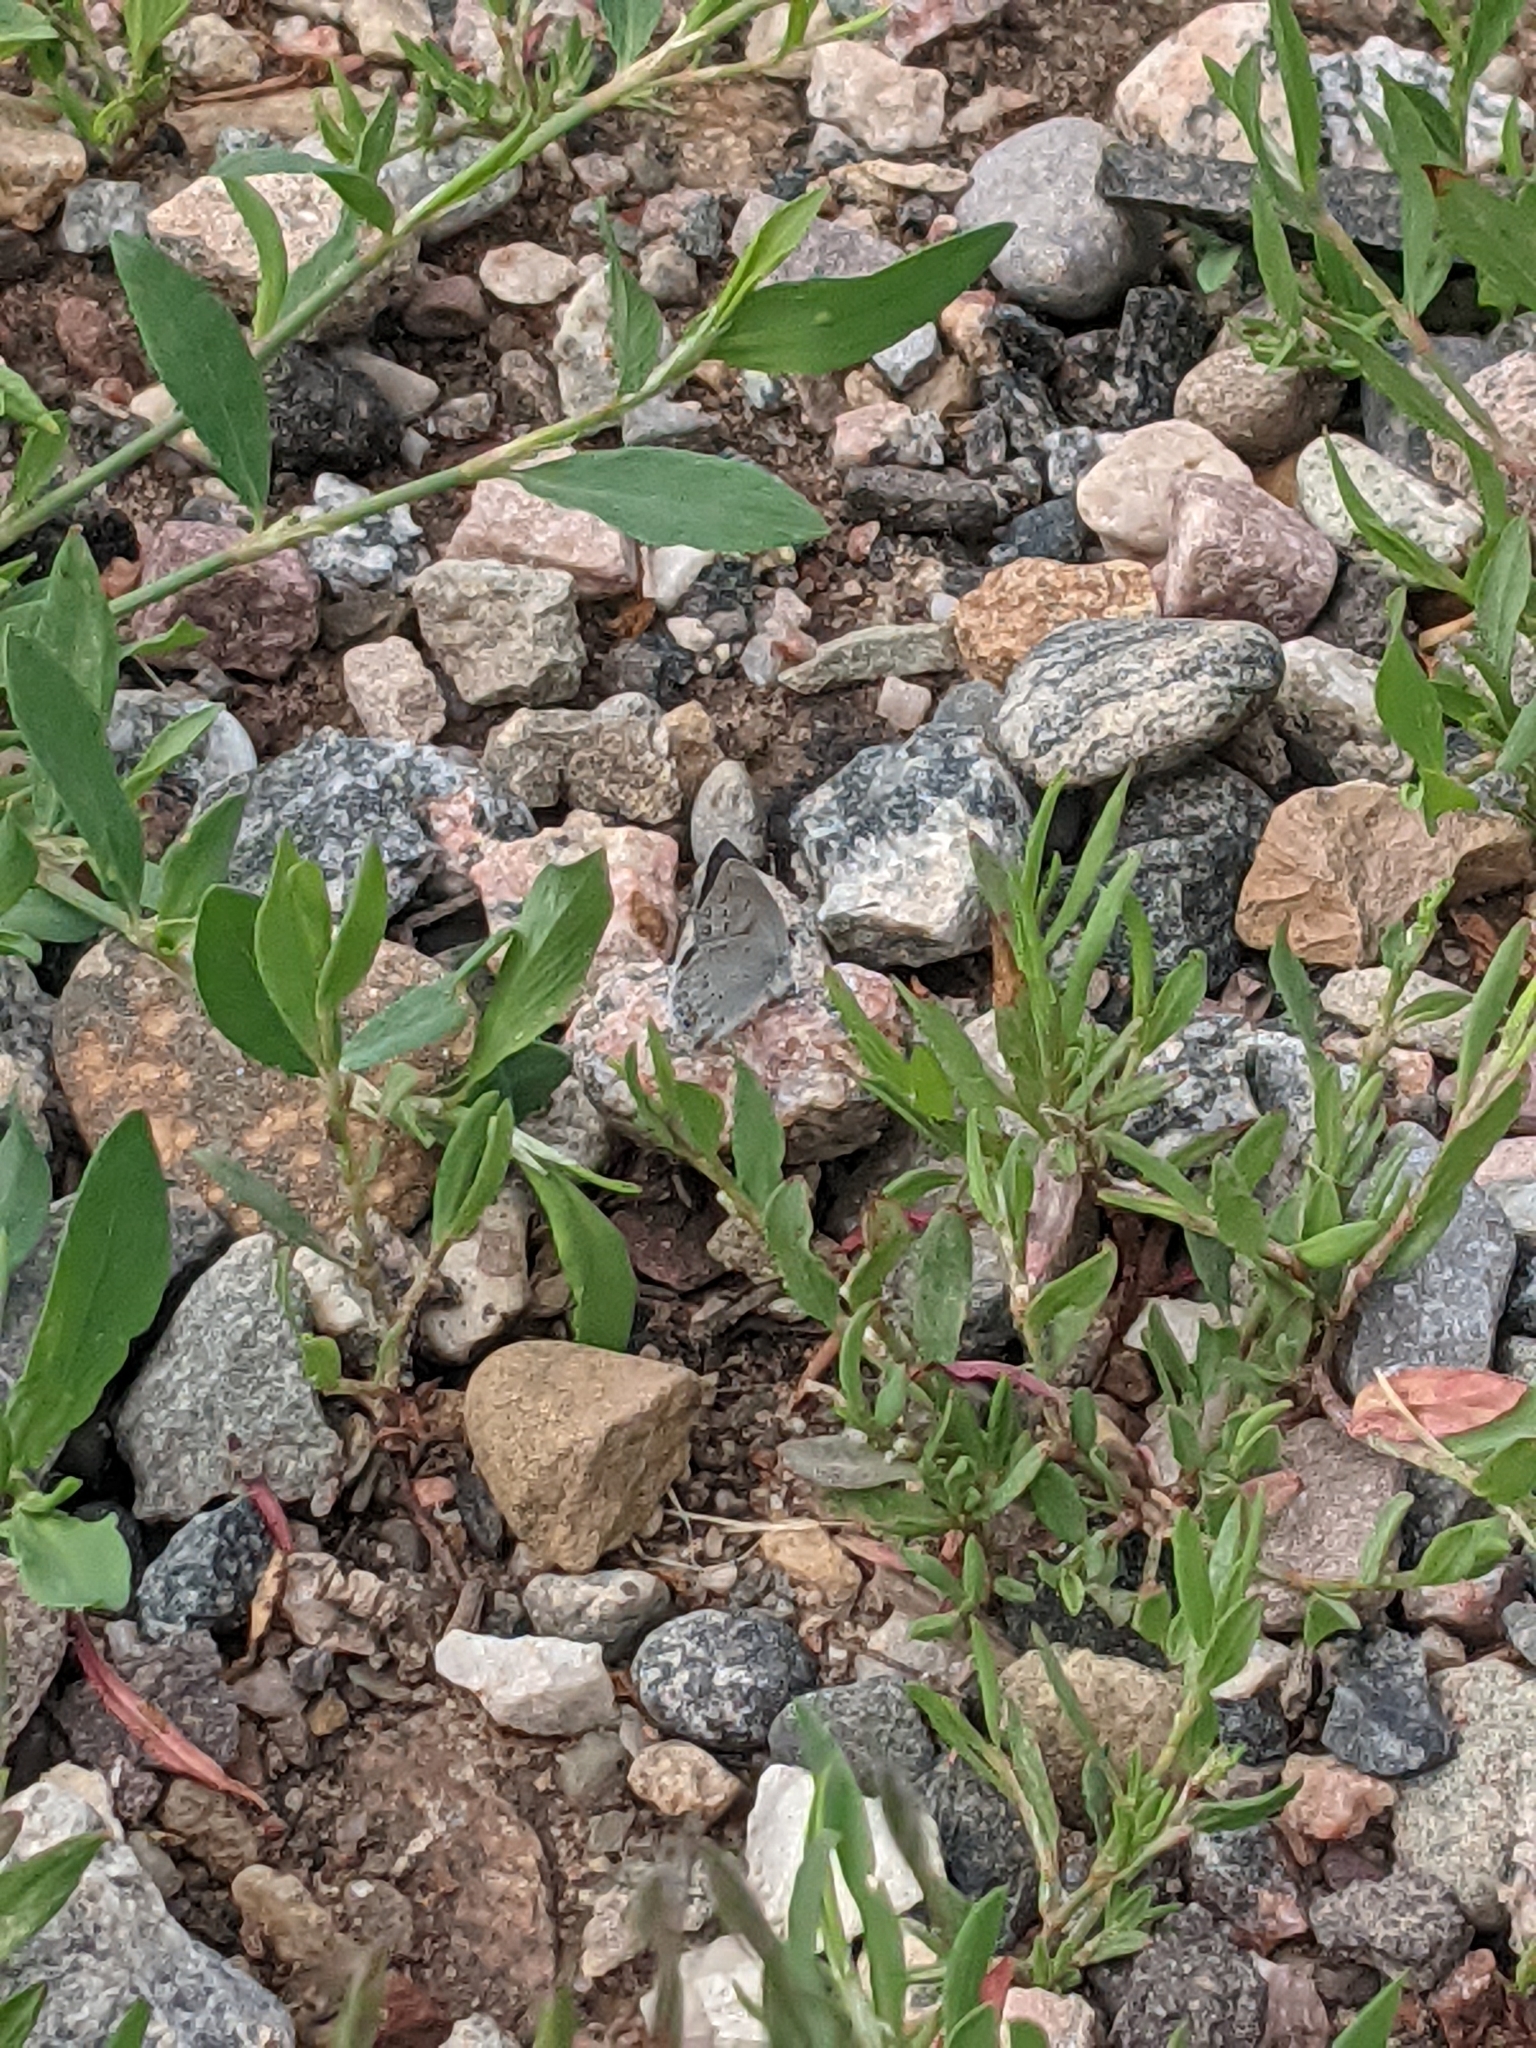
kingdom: Animalia
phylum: Arthropoda
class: Insecta
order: Lepidoptera
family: Lycaenidae
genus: Elkalyce
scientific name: Elkalyce amyntula
